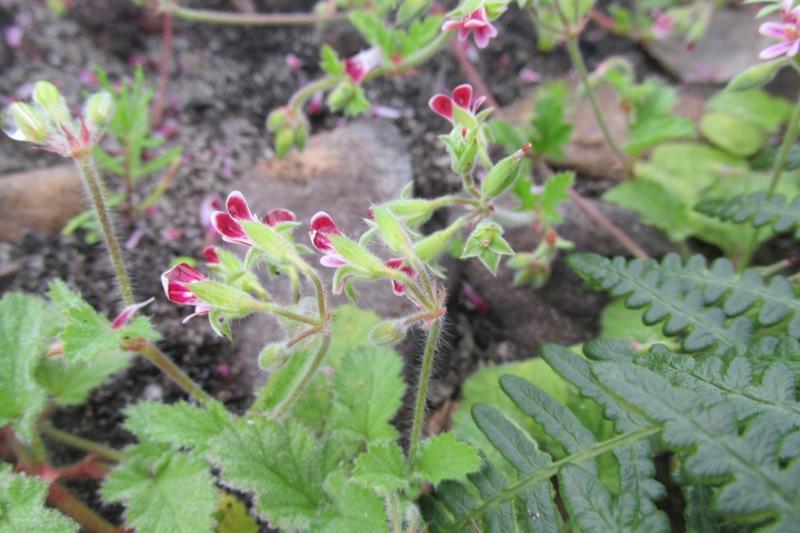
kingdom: Plantae
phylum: Tracheophyta
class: Magnoliopsida
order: Geraniales
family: Geraniaceae
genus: Pelargonium
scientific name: Pelargonium althaeoides
